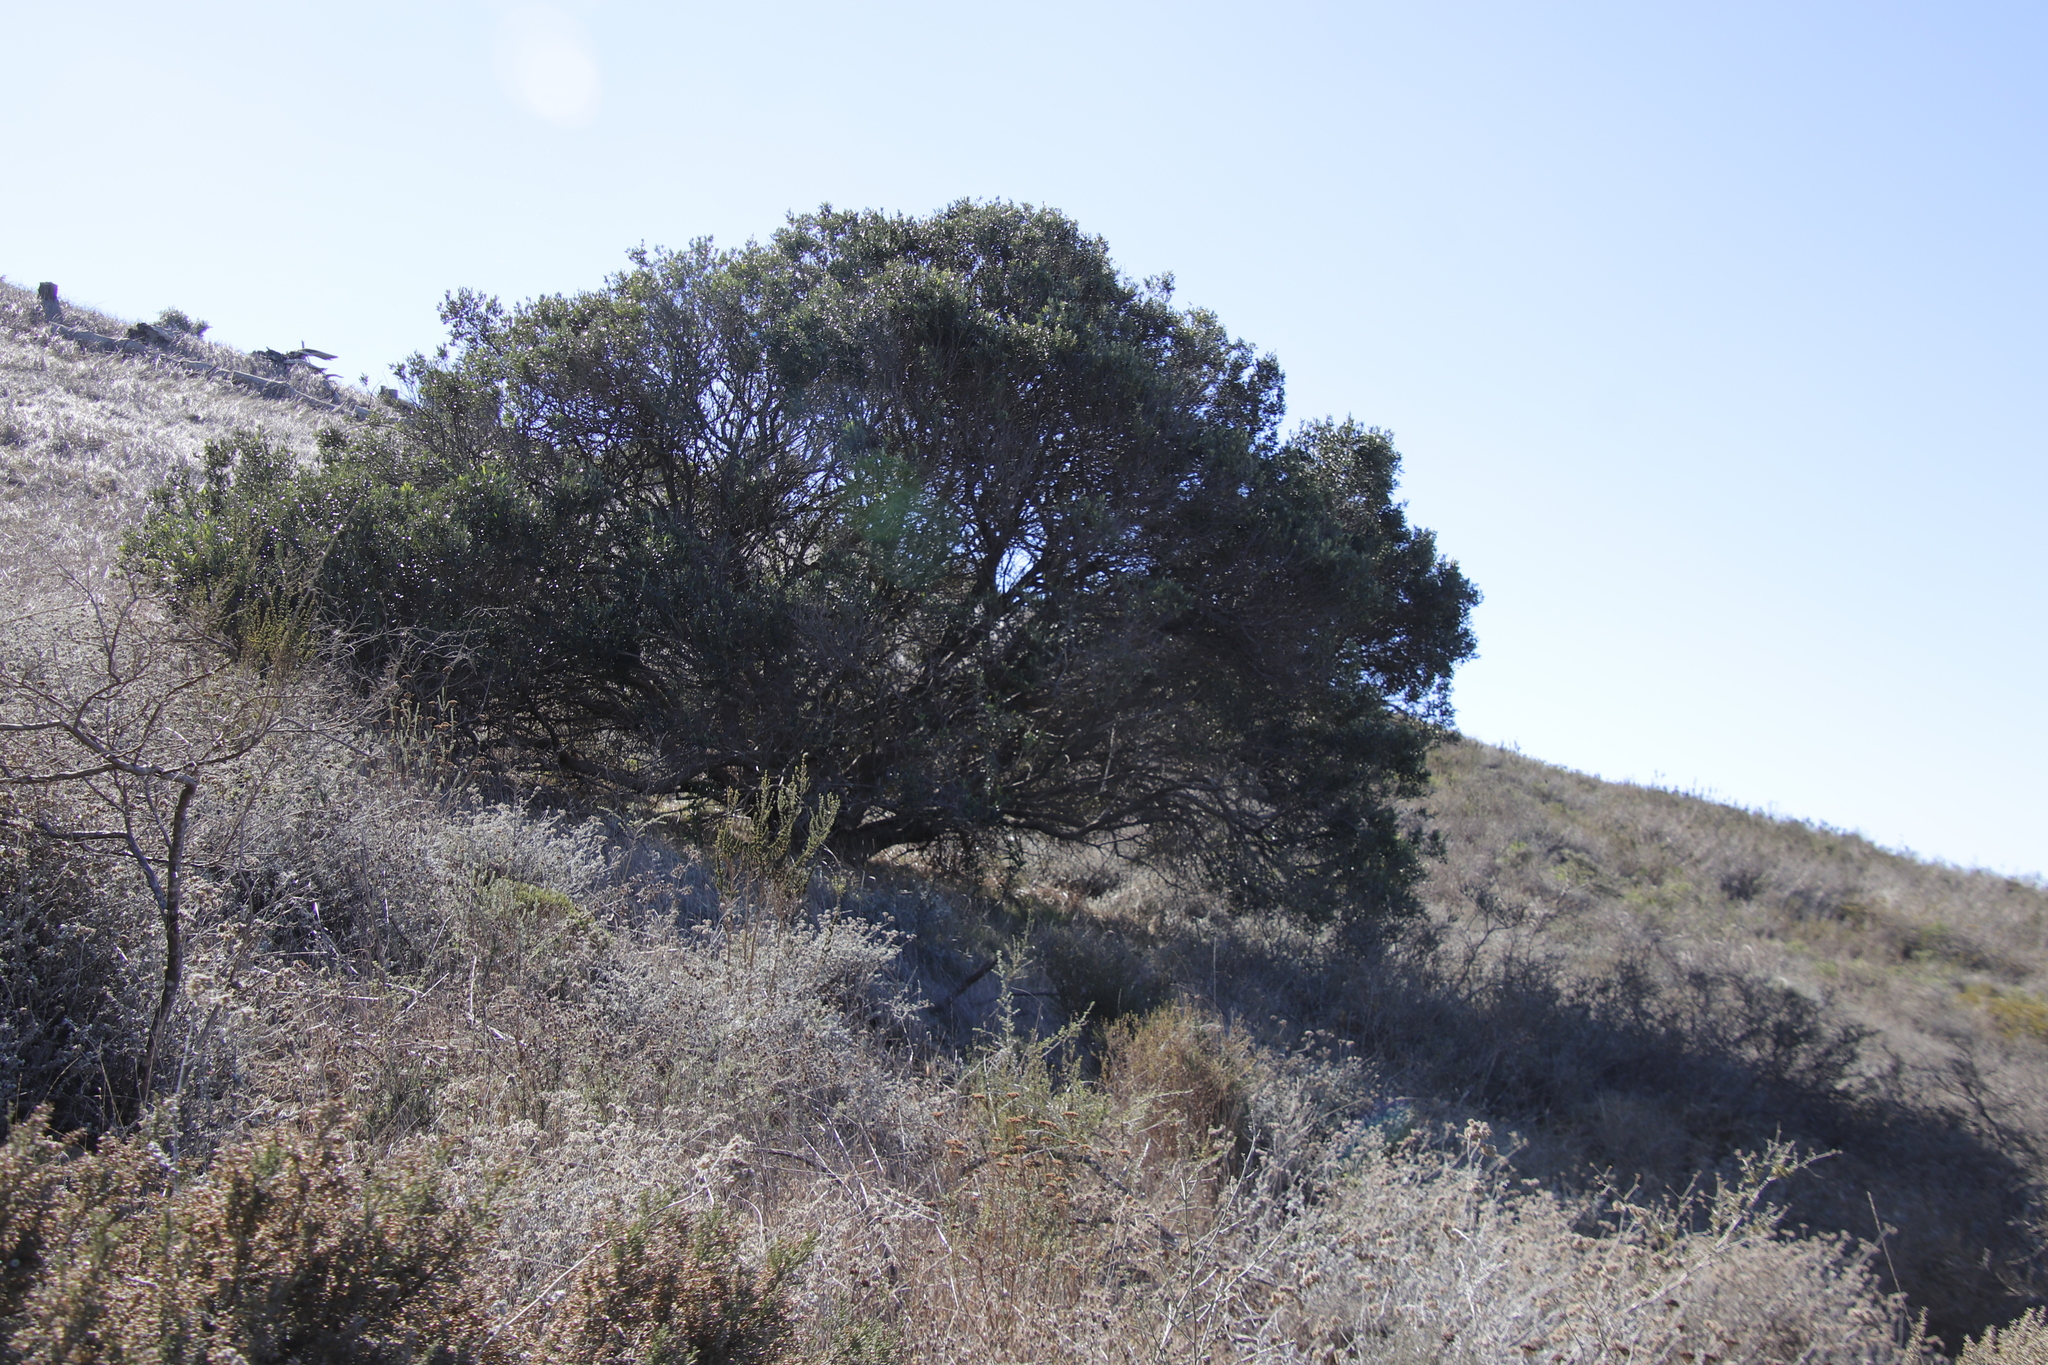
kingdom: Plantae
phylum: Tracheophyta
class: Magnoliopsida
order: Lamiales
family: Oleaceae
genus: Olea
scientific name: Olea europaea
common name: Olive
